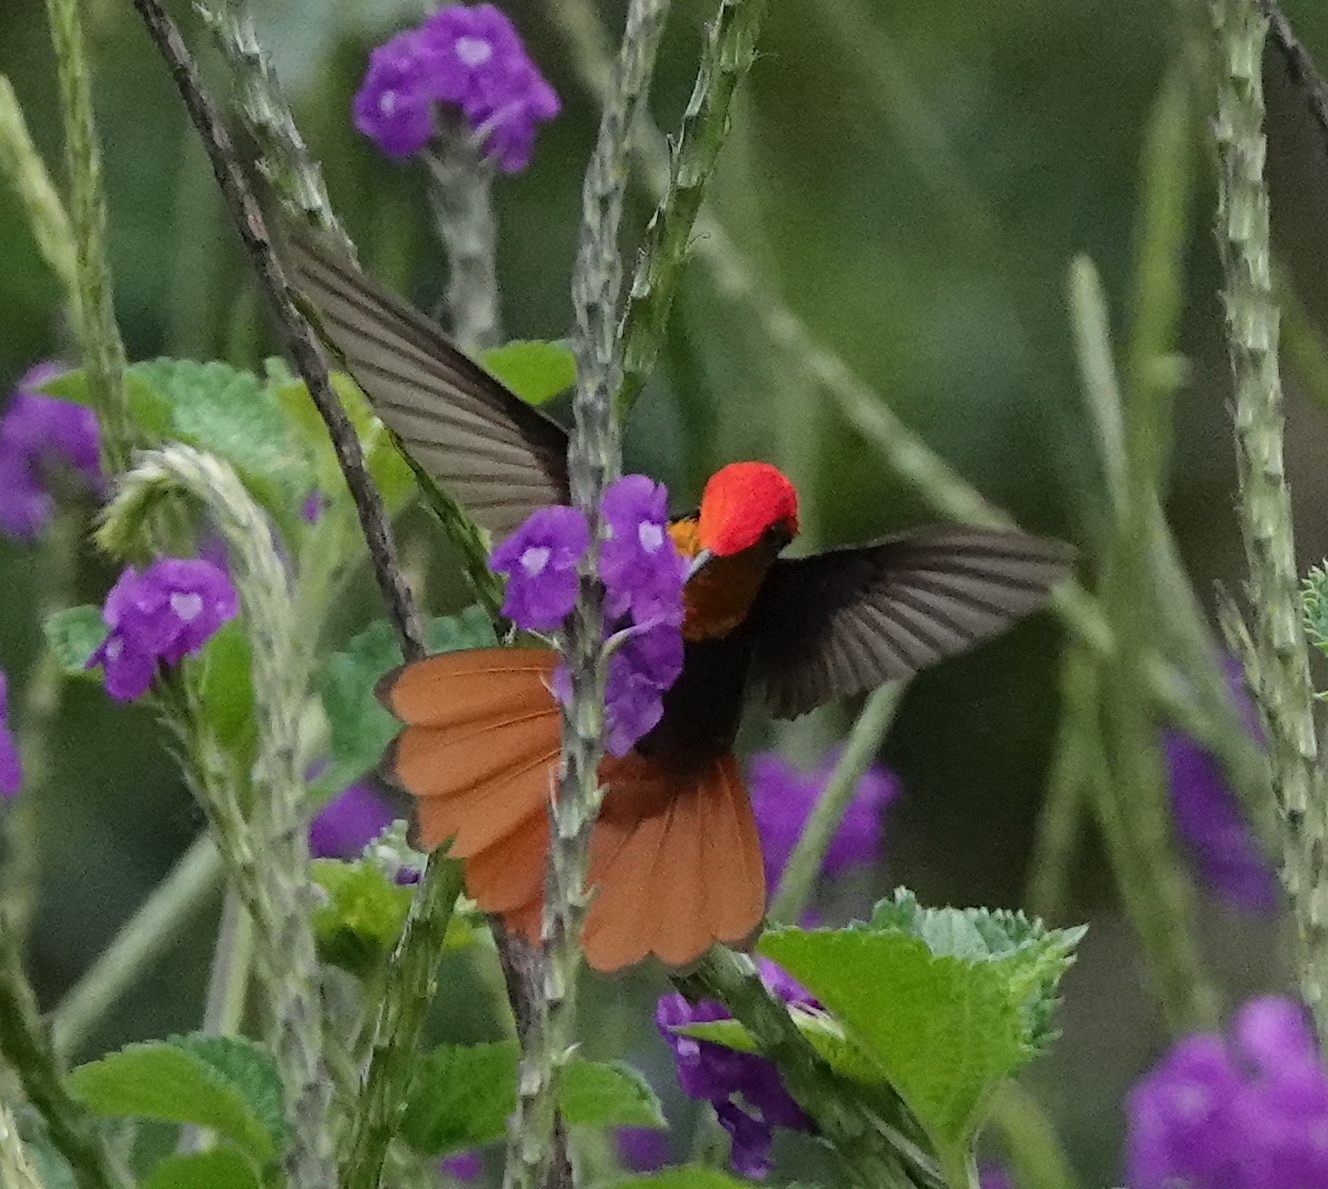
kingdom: Animalia
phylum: Chordata
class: Aves
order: Apodiformes
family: Trochilidae
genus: Chrysolampis
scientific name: Chrysolampis mosquitus
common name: Ruby-topaz hummingbird
